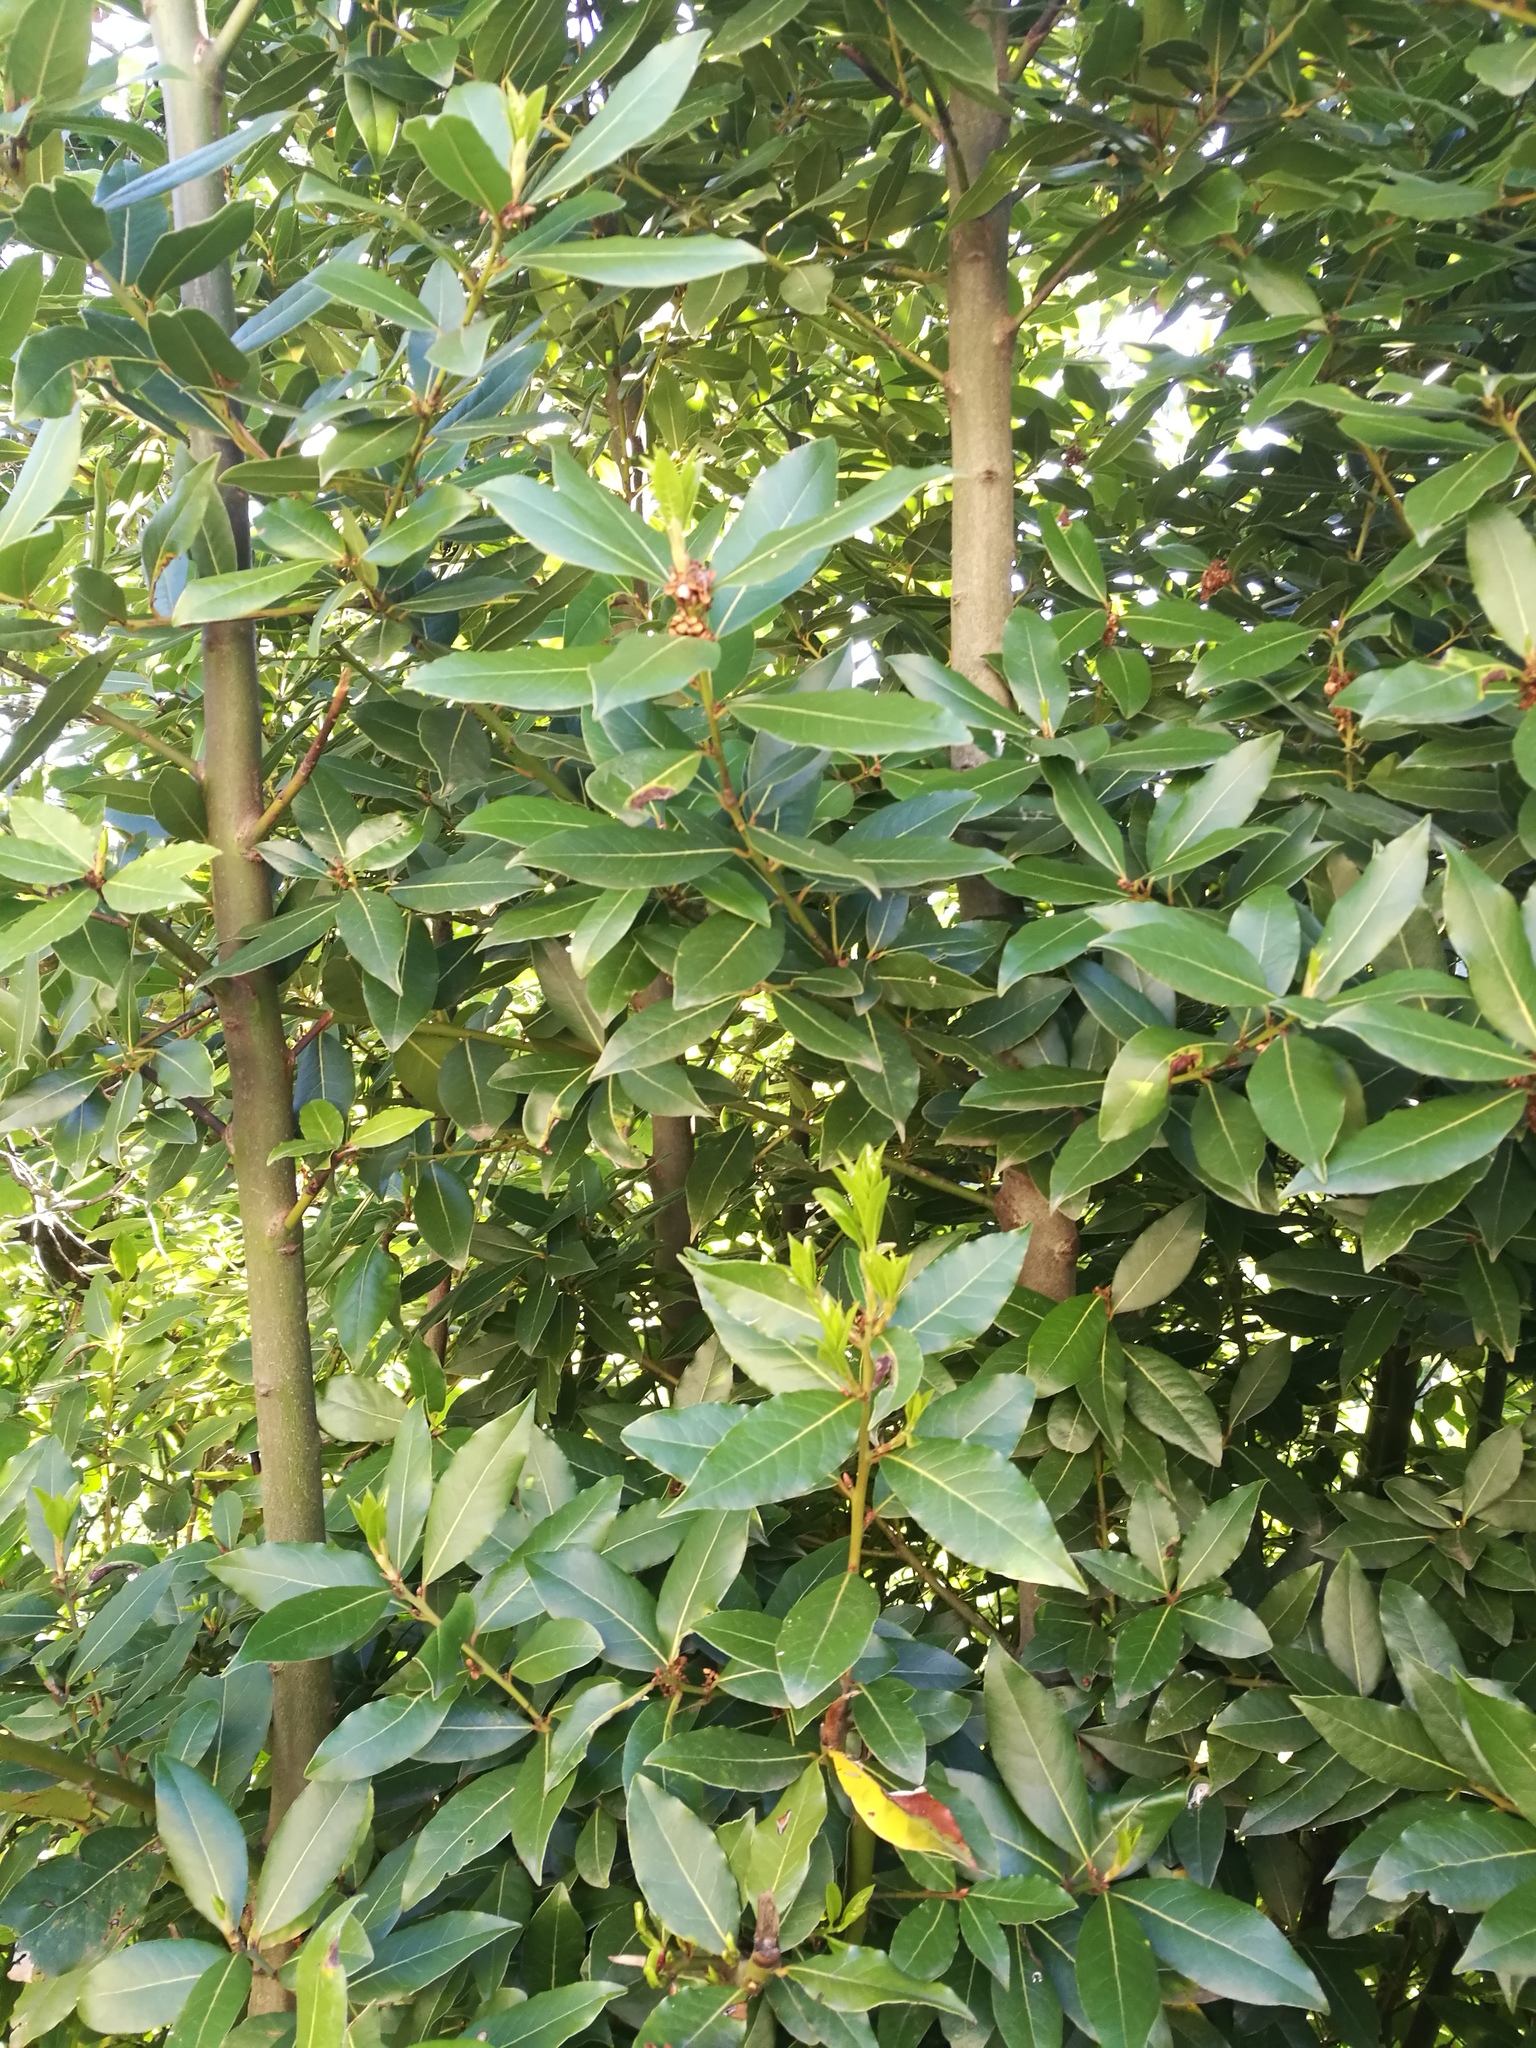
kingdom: Plantae
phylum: Tracheophyta
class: Magnoliopsida
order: Laurales
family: Lauraceae
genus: Laurus
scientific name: Laurus nobilis
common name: Bay
